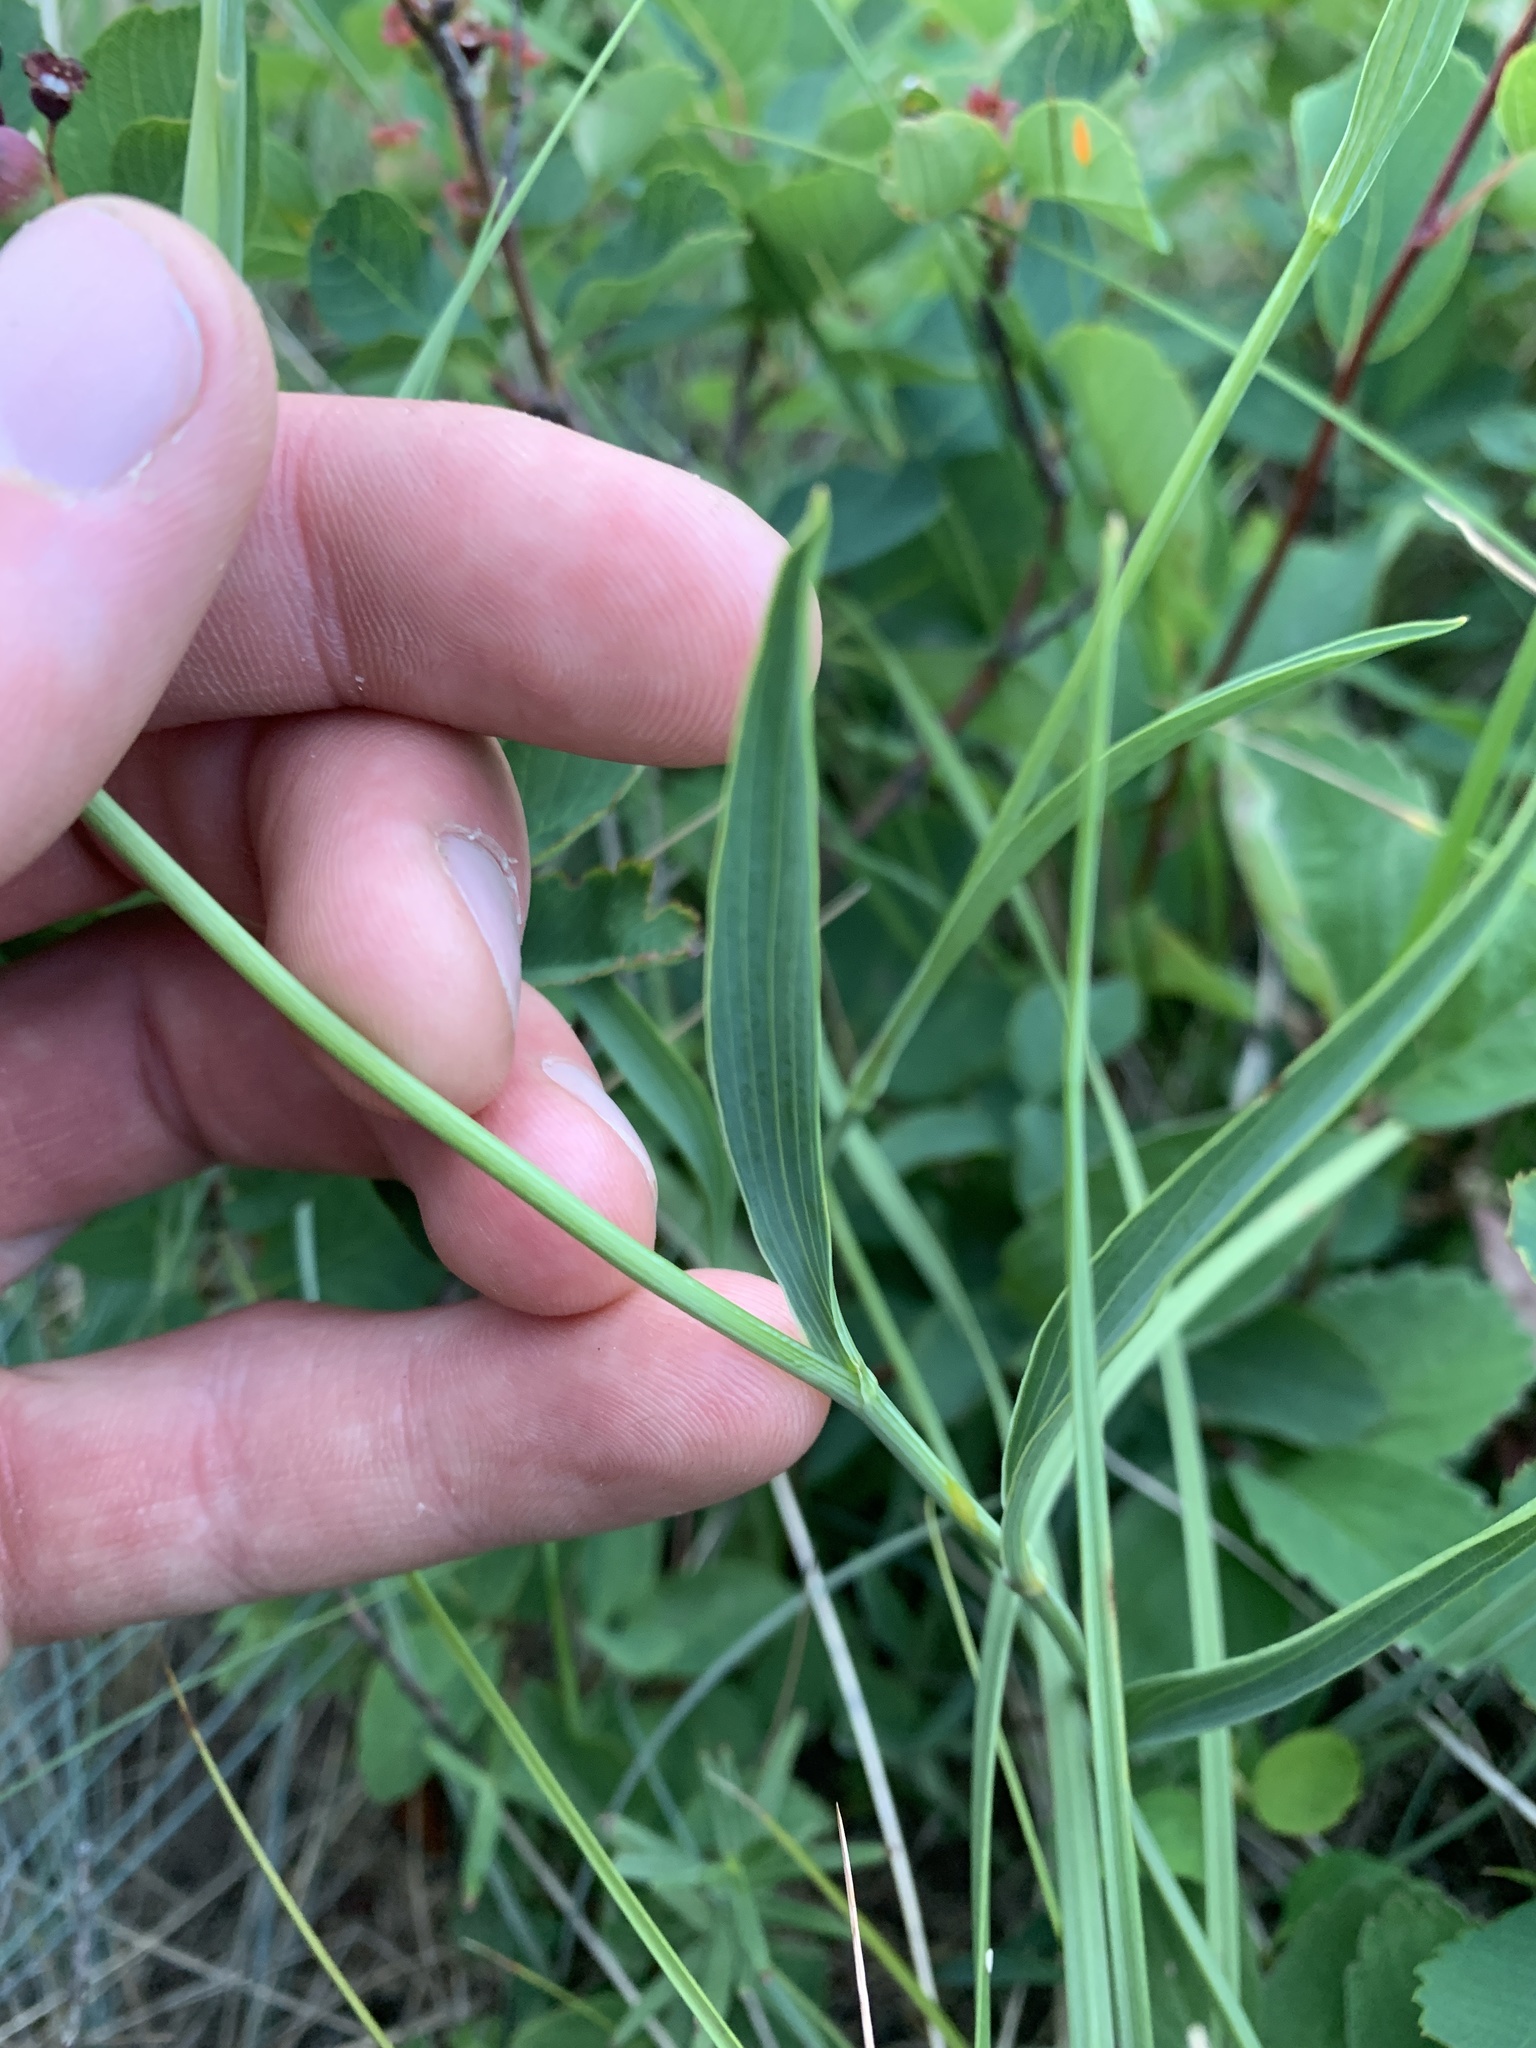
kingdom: Plantae
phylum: Tracheophyta
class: Magnoliopsida
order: Apiales
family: Apiaceae
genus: Bupleurum
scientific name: Bupleurum americanum
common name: American thoroughwax
